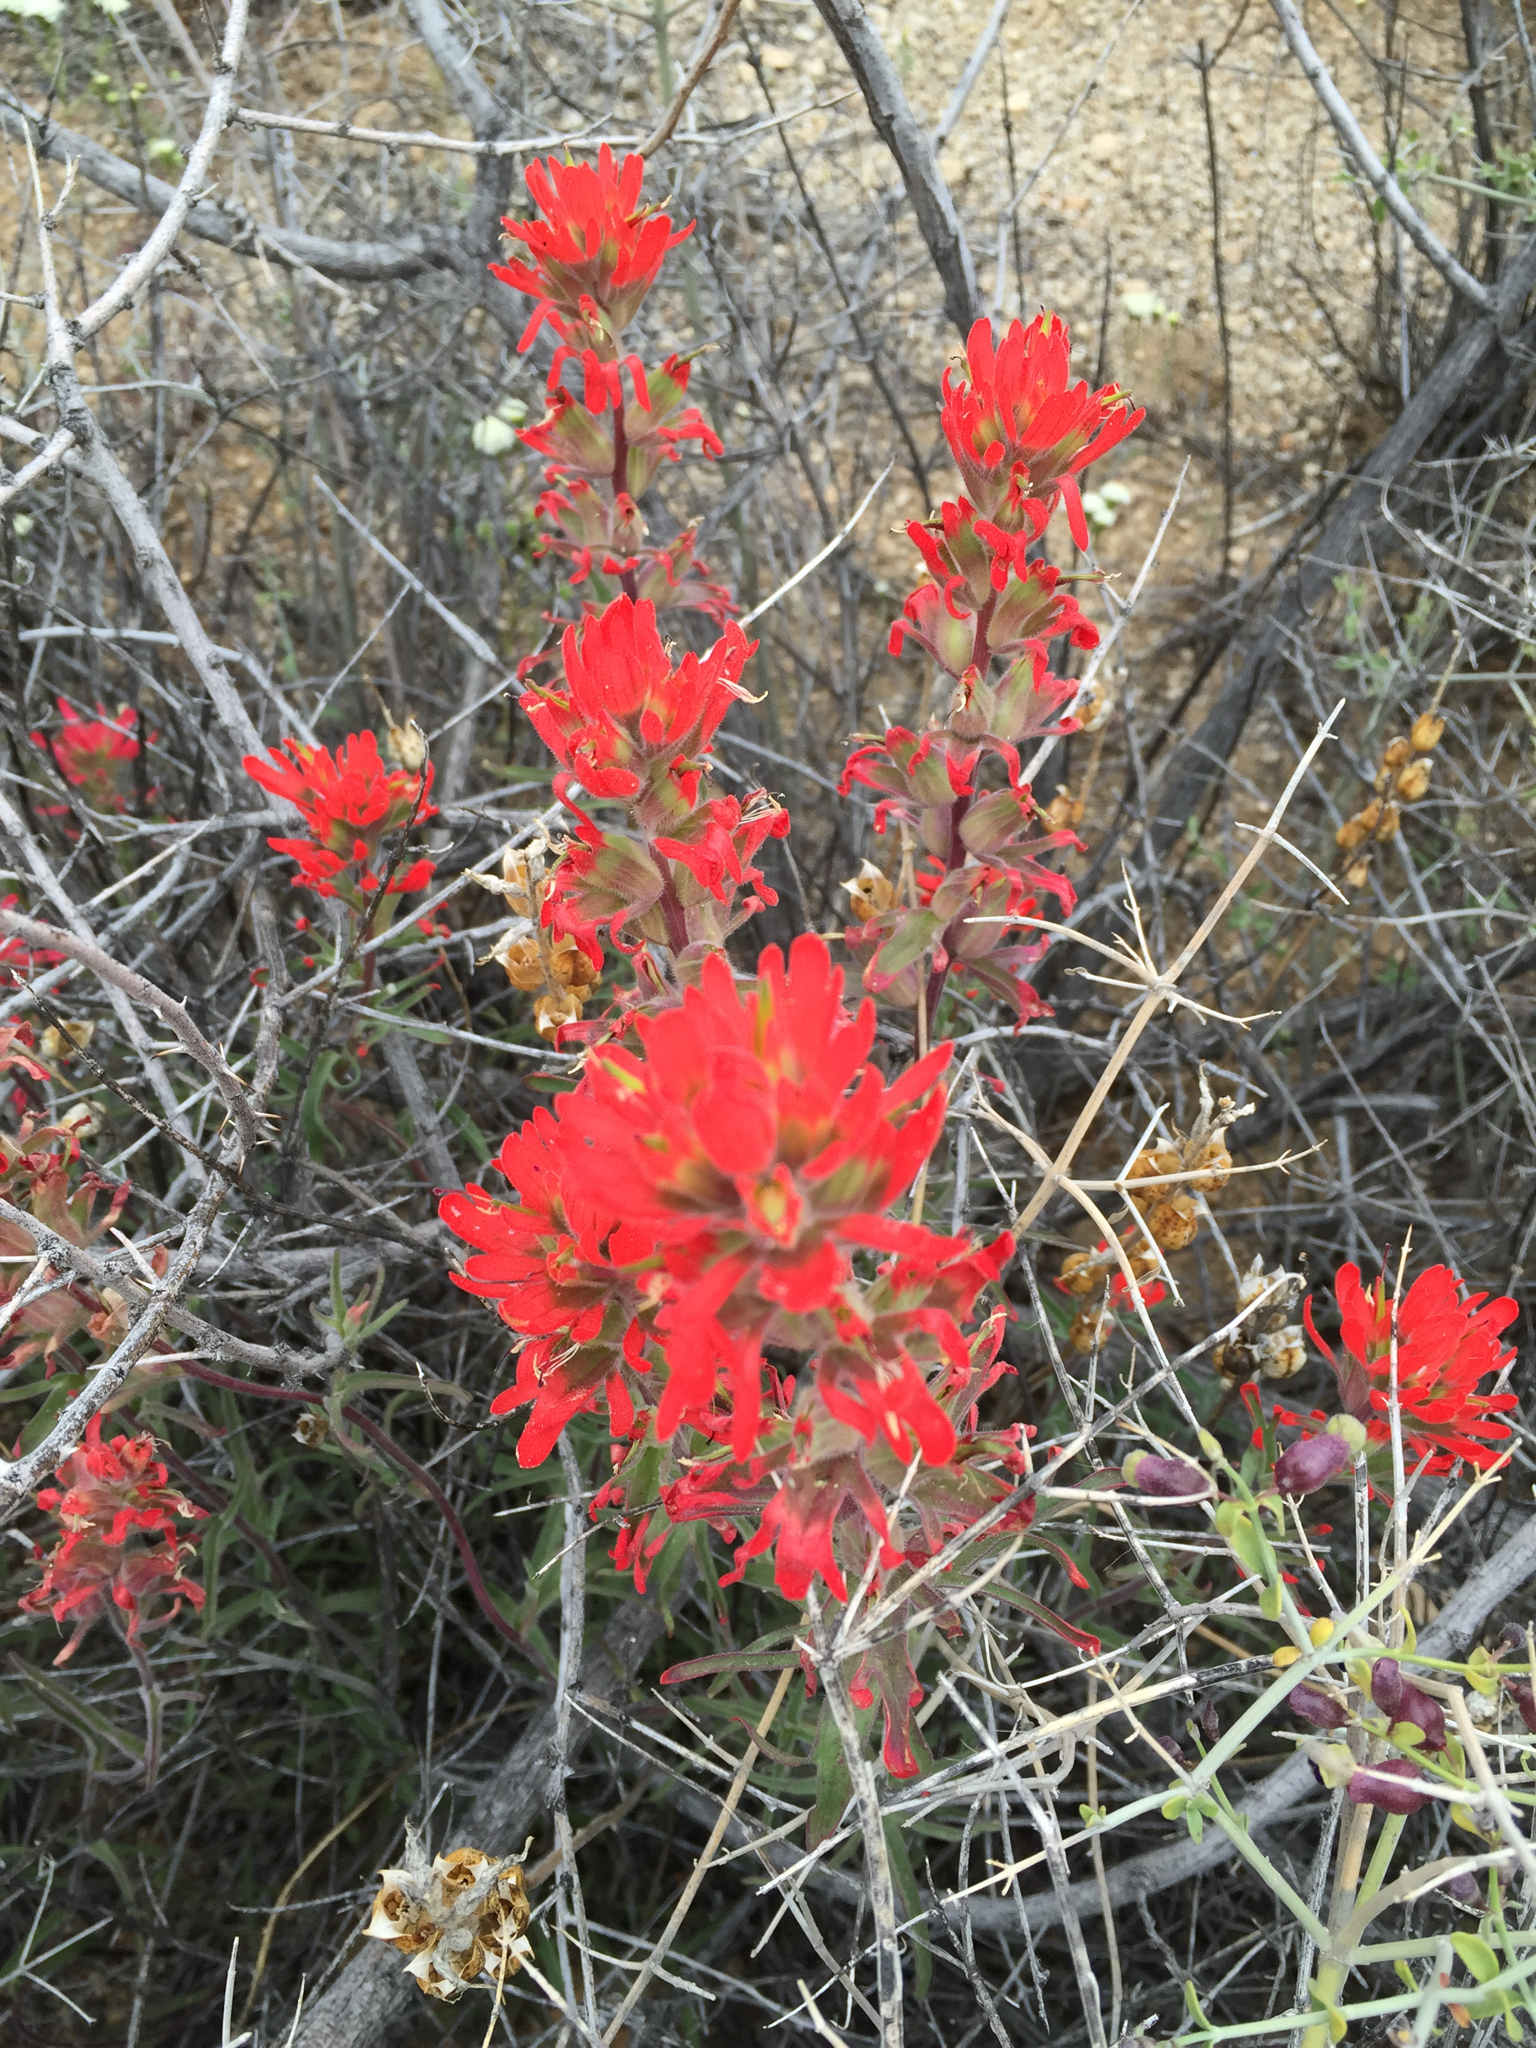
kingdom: Plantae
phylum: Tracheophyta
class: Magnoliopsida
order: Lamiales
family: Orobanchaceae
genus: Castilleja
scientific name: Castilleja chromosa
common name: Desert paintbrush
